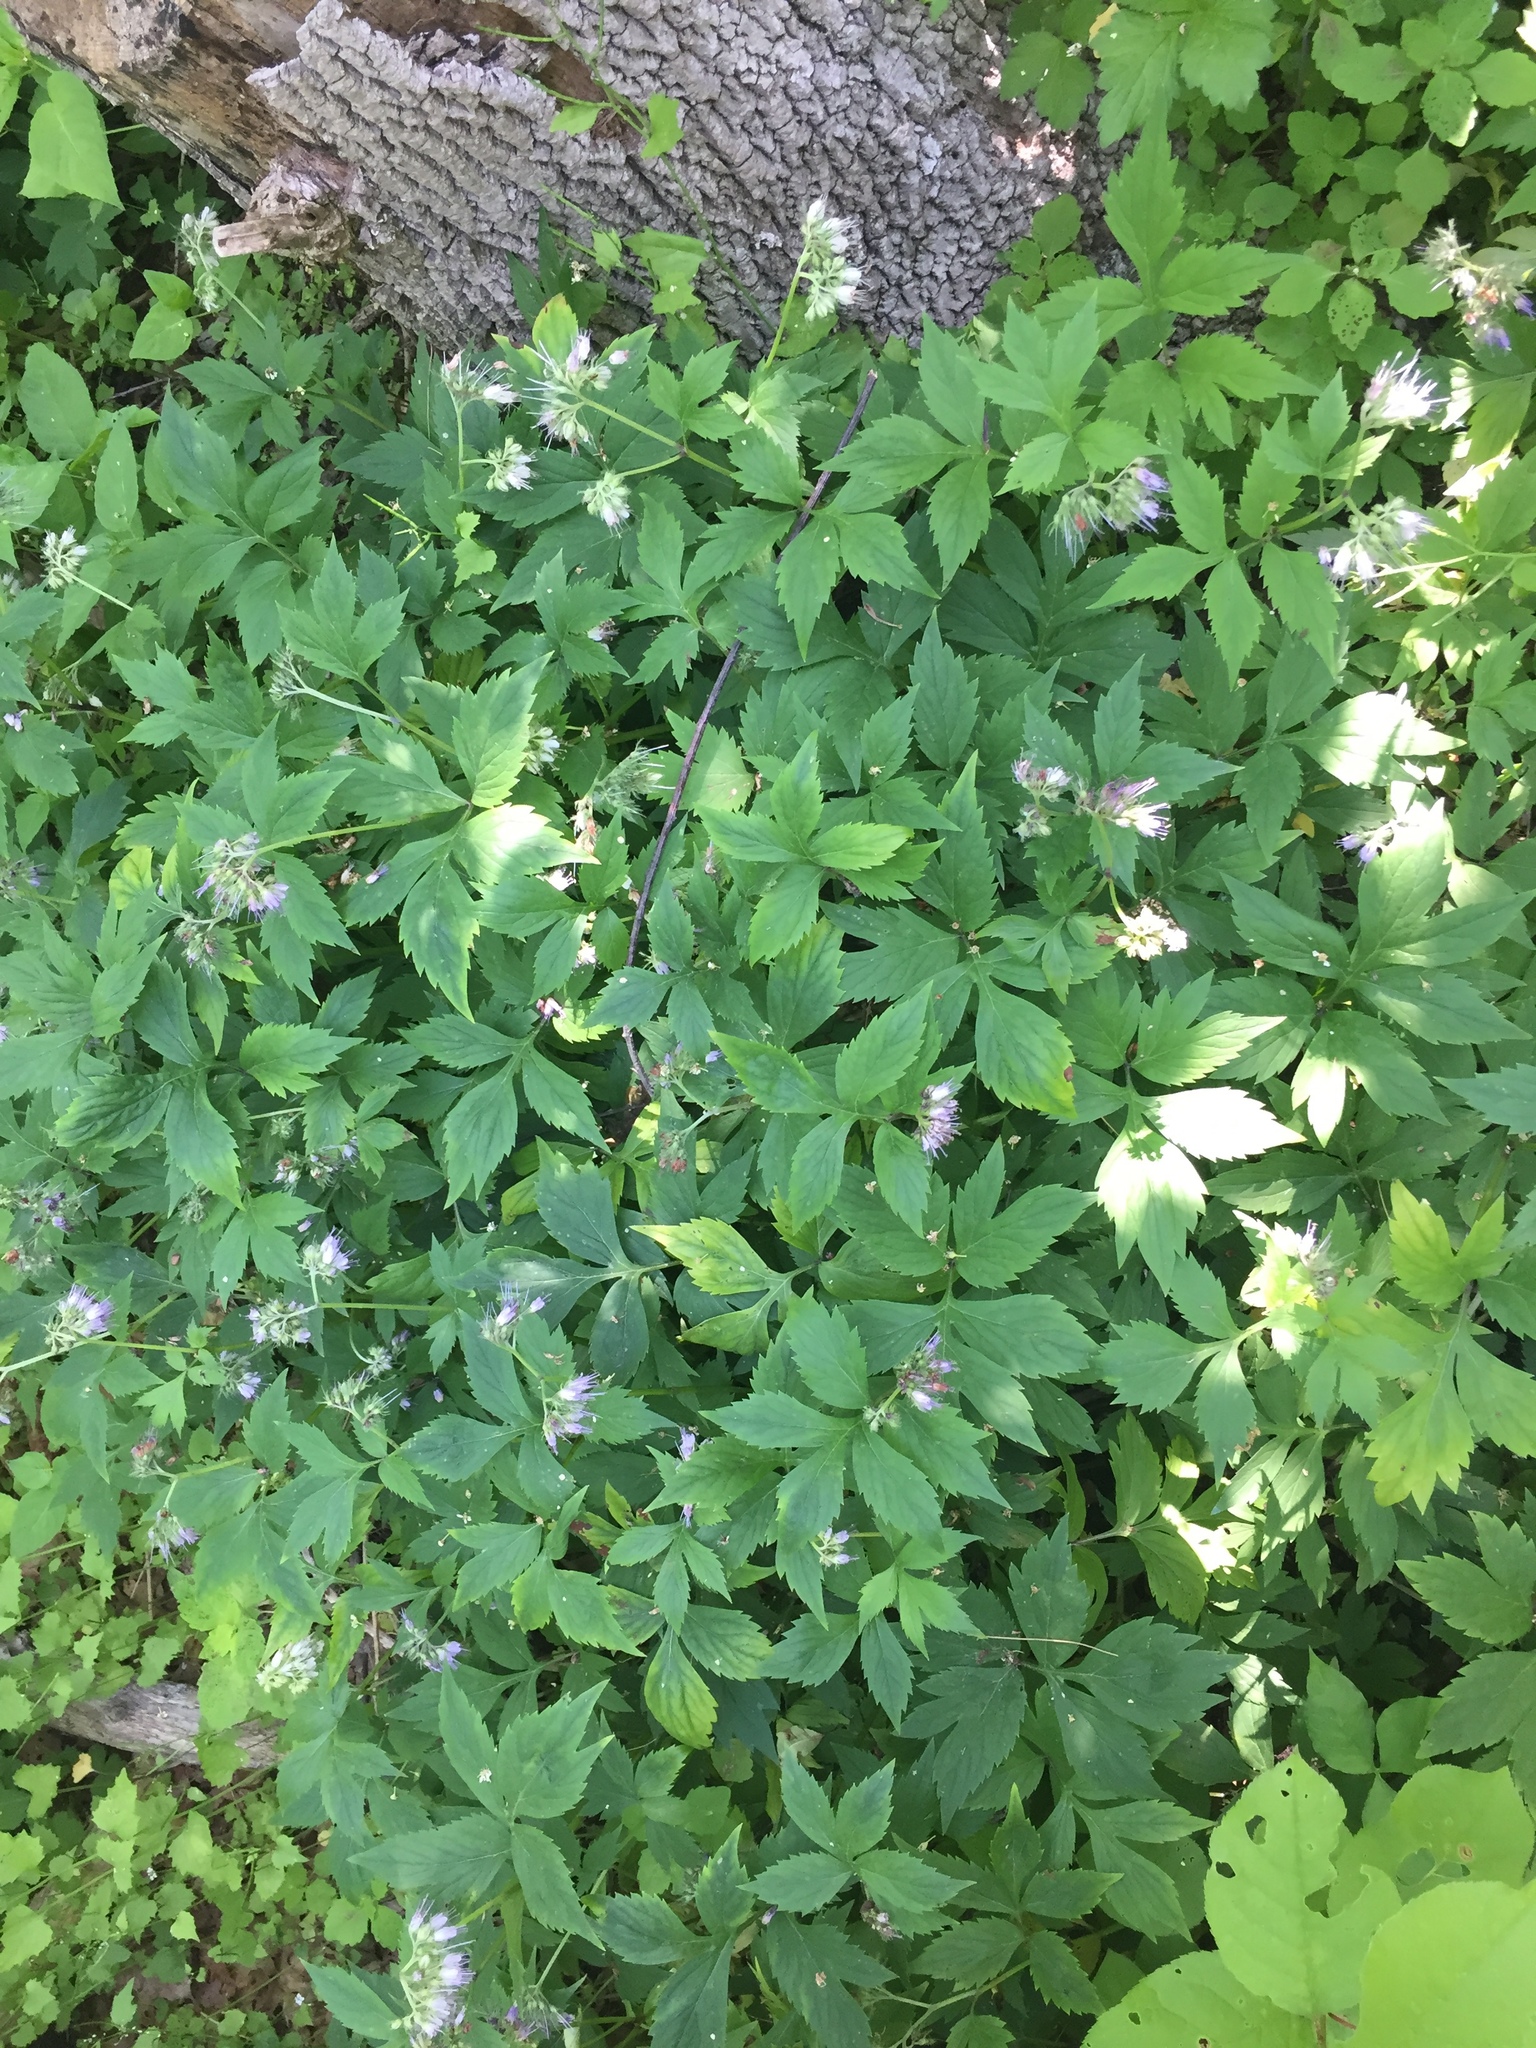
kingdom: Plantae
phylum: Tracheophyta
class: Magnoliopsida
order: Boraginales
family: Hydrophyllaceae
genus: Hydrophyllum
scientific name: Hydrophyllum virginianum
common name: Virginia waterleaf
